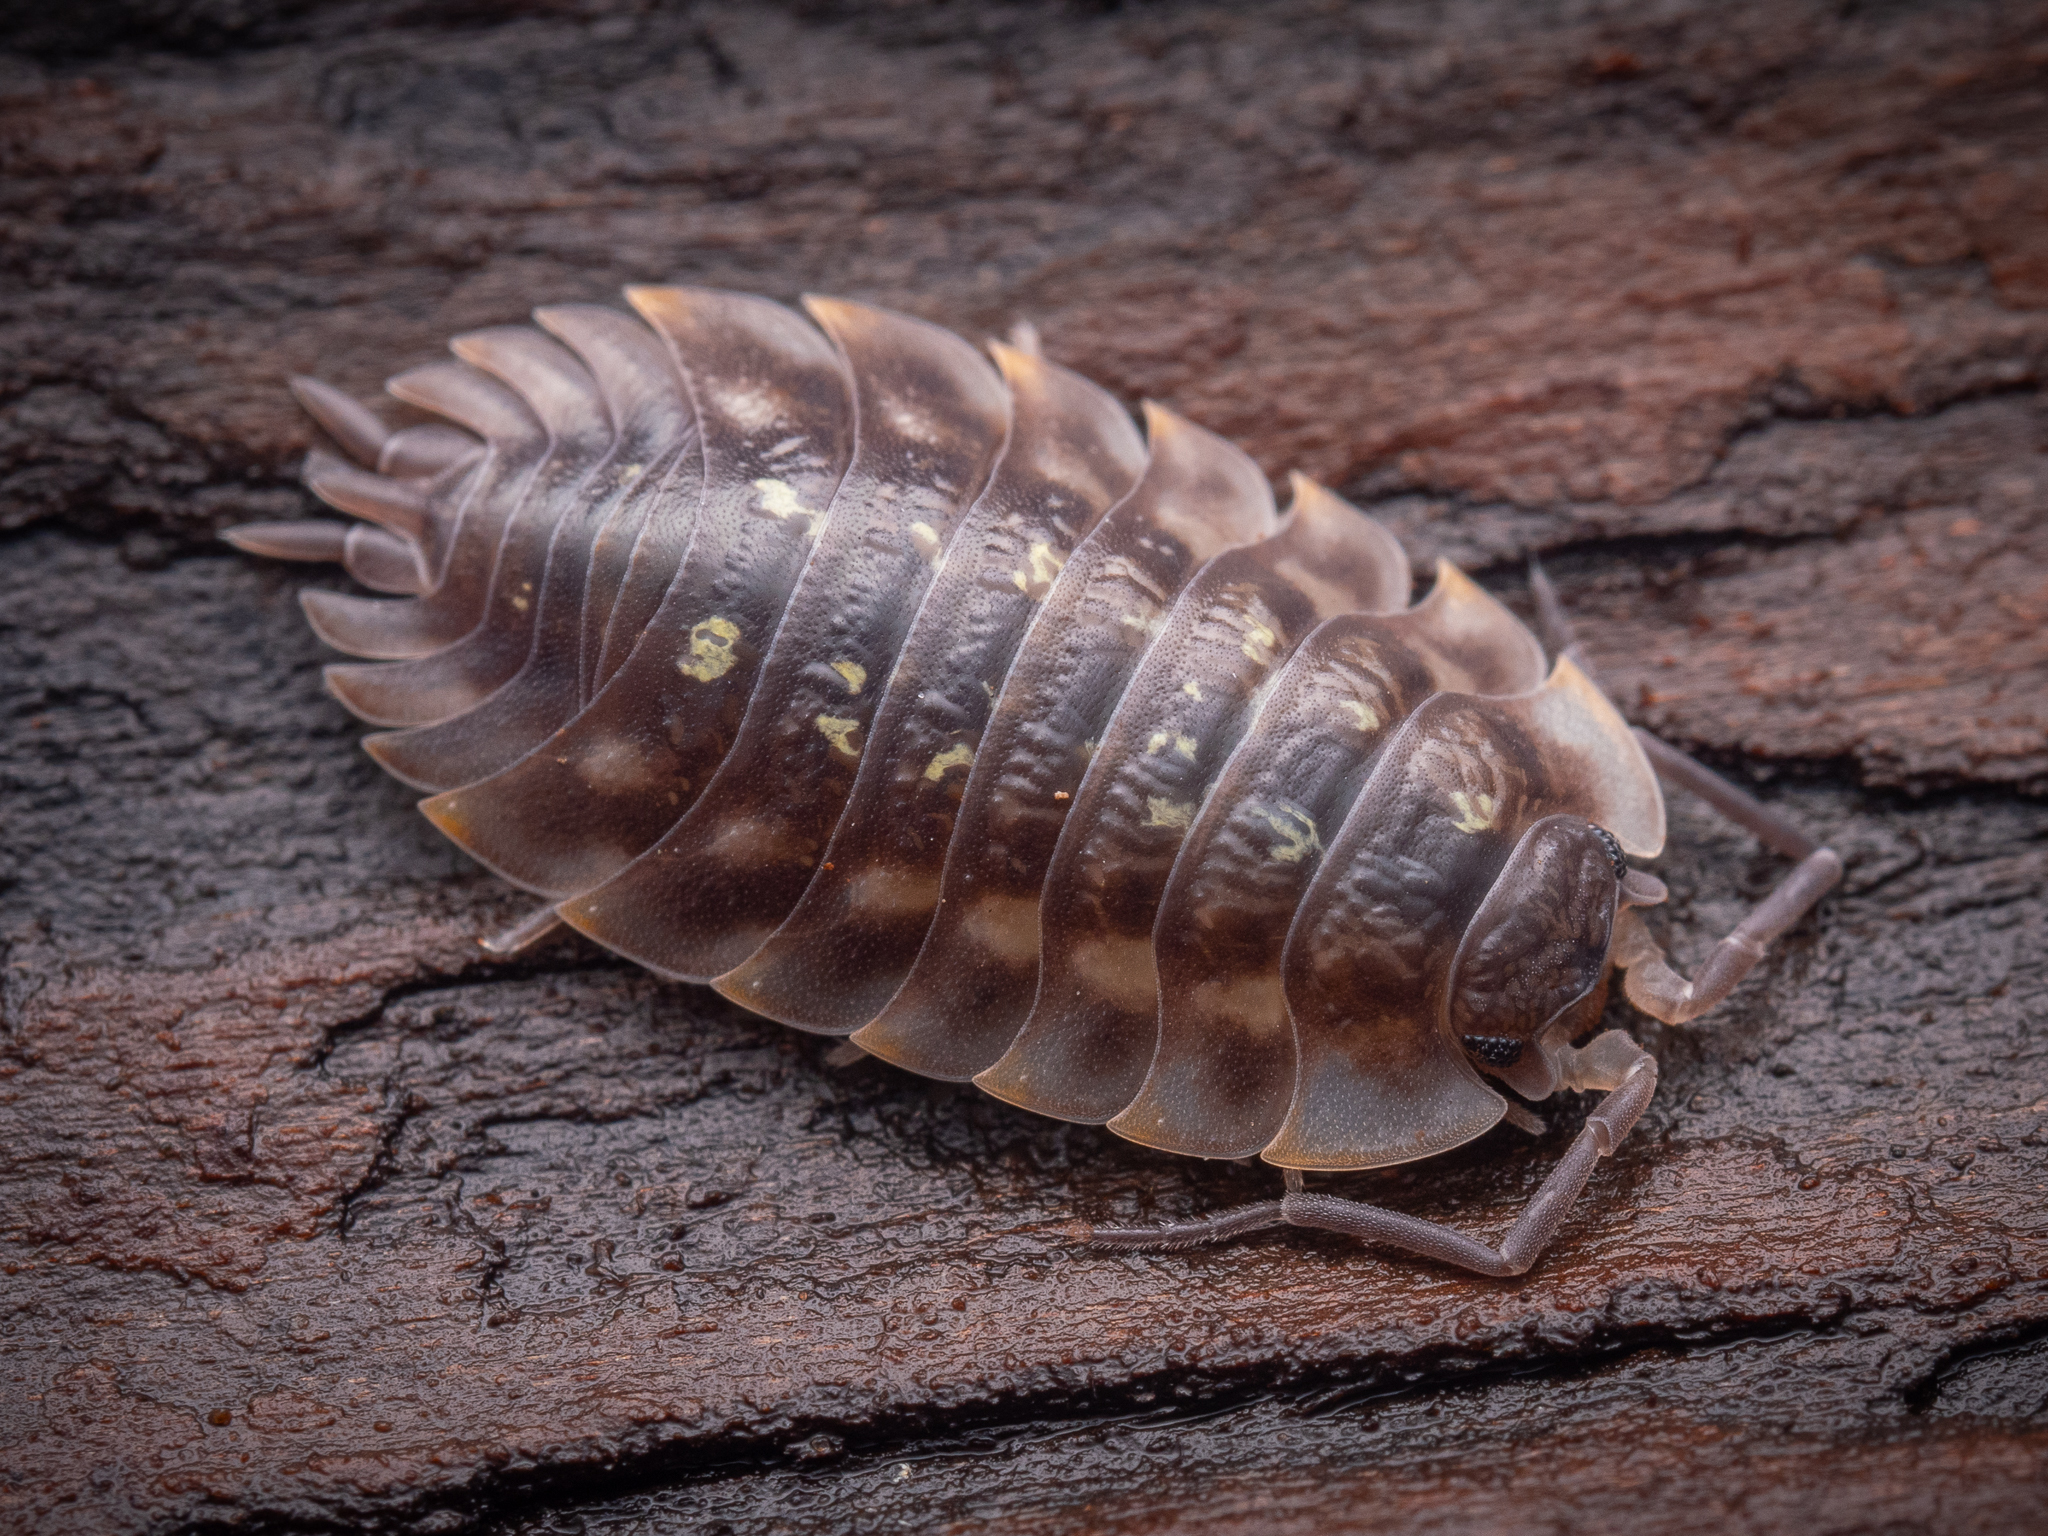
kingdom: Animalia
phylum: Arthropoda
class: Malacostraca
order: Isopoda
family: Oniscidae
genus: Oniscus
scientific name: Oniscus asellus
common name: Common shiny woodlouse
